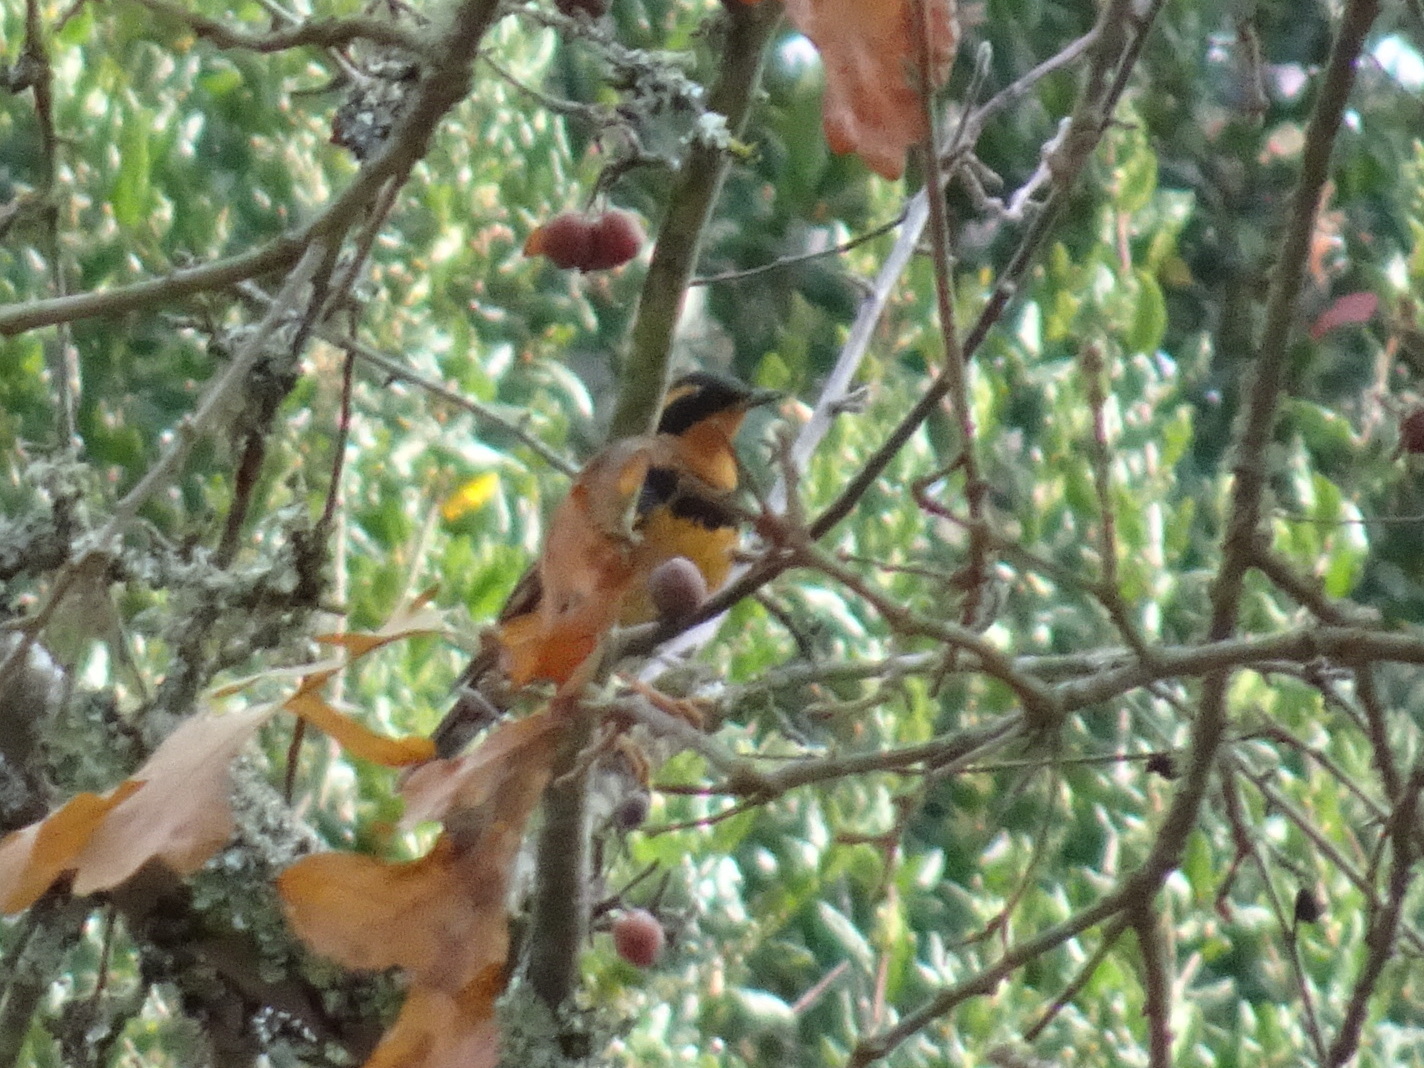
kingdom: Animalia
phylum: Chordata
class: Aves
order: Passeriformes
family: Turdidae
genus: Ixoreus
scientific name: Ixoreus naevius
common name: Varied thrush
